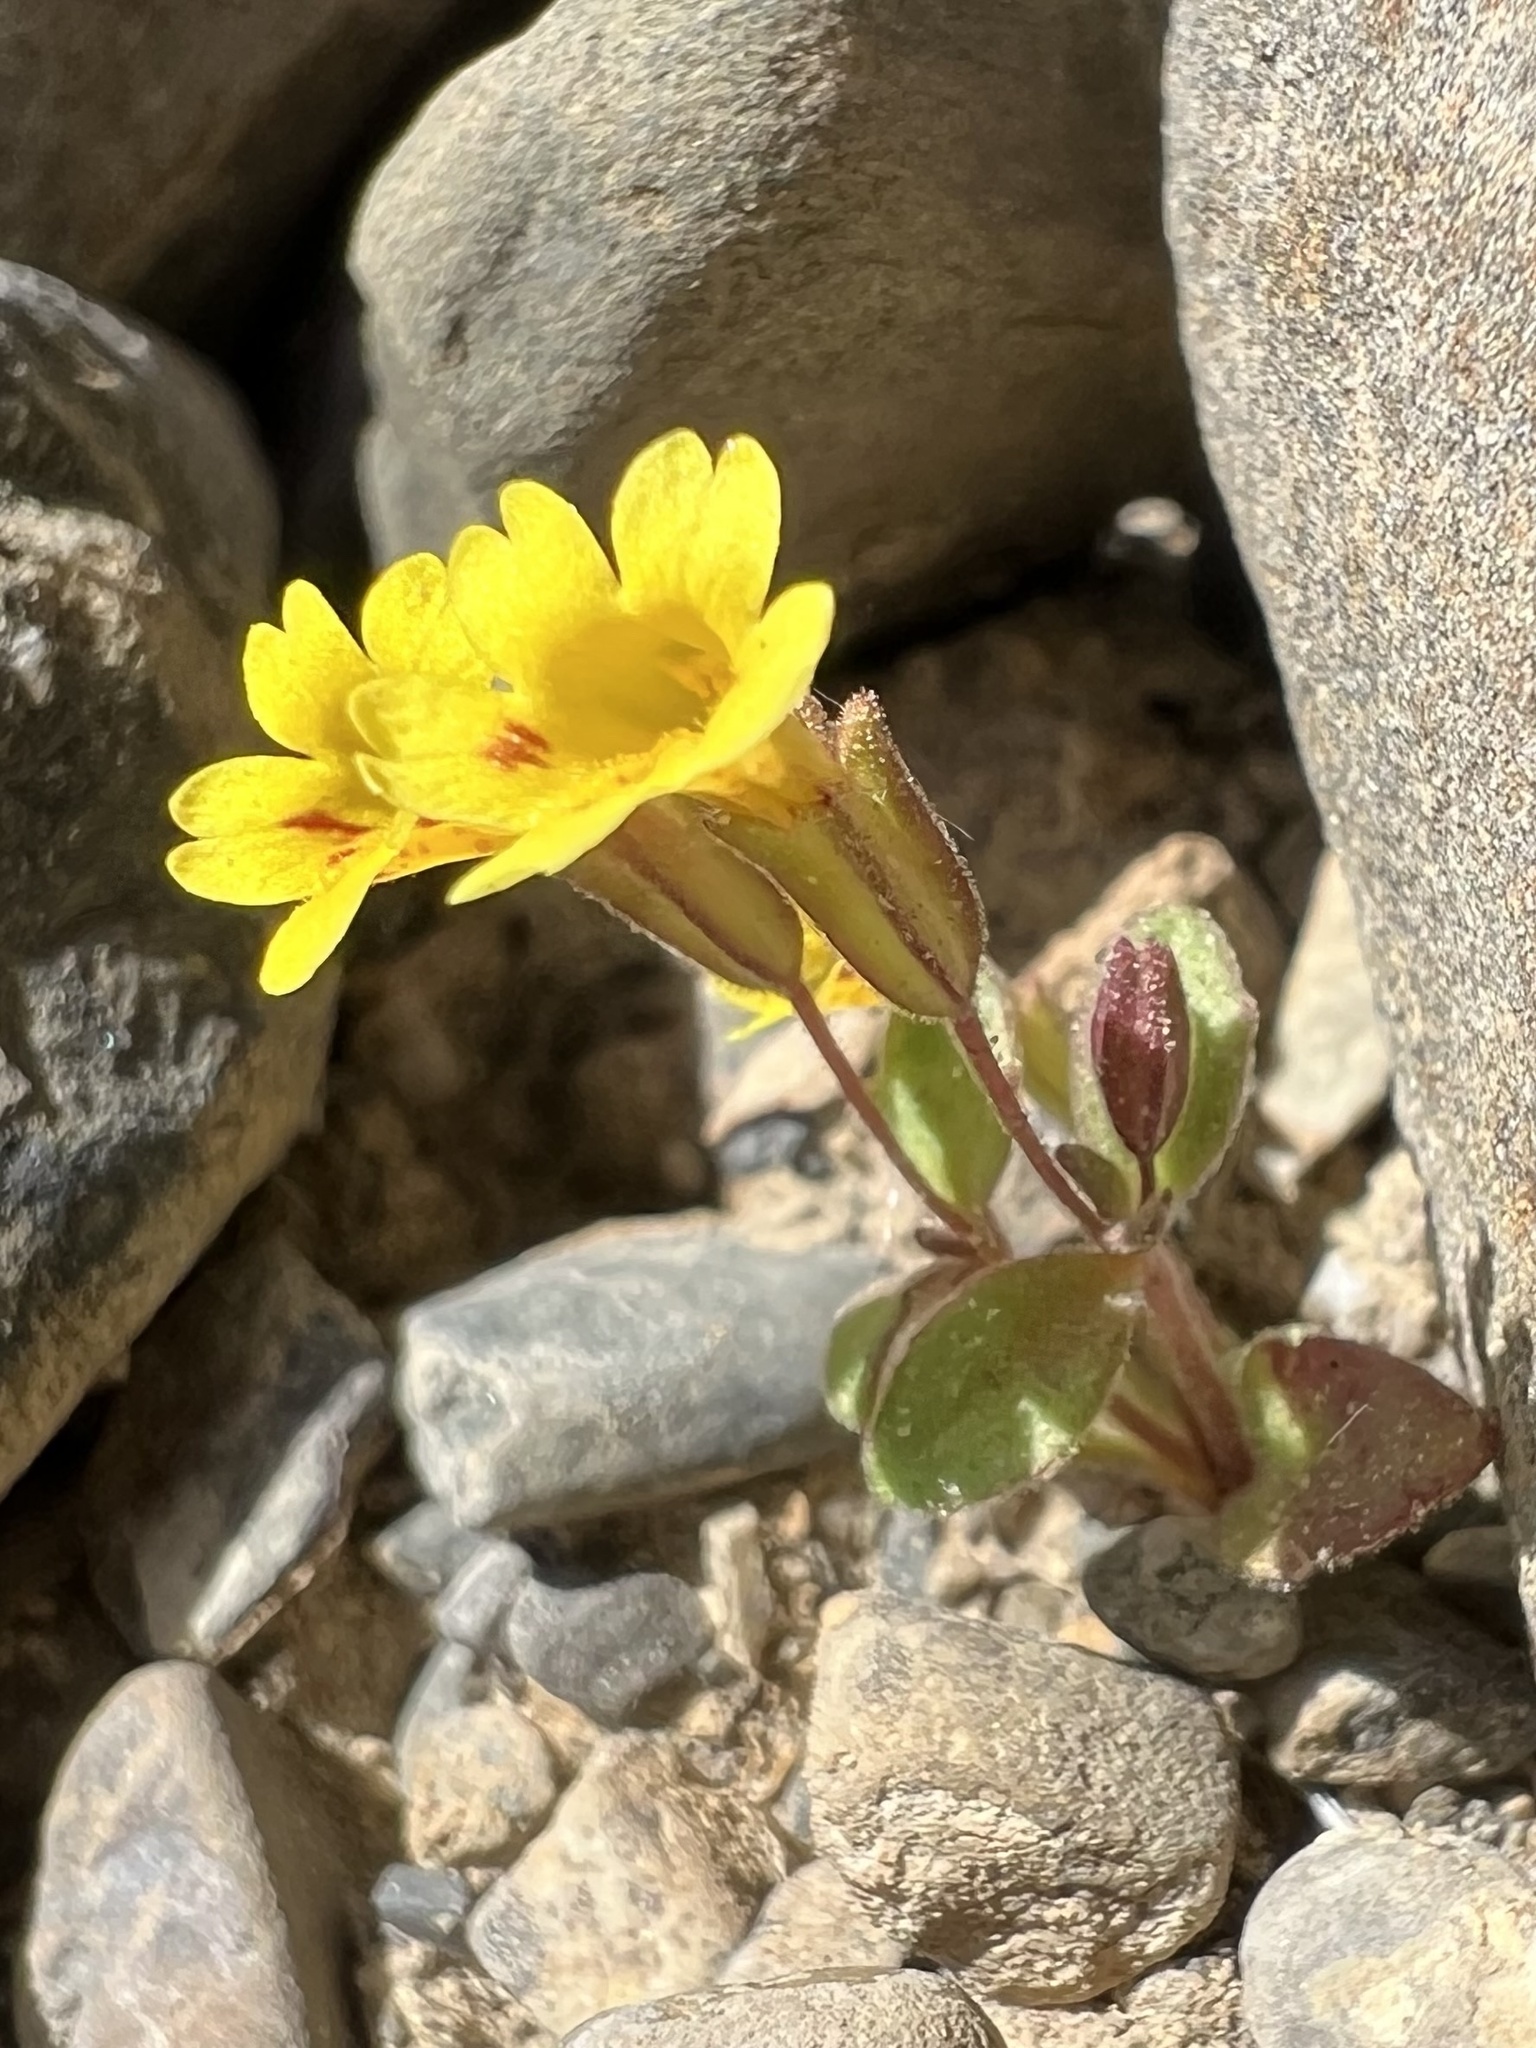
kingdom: Plantae
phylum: Tracheophyta
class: Magnoliopsida
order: Lamiales
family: Phrymaceae
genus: Erythranthe
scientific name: Erythranthe calcicola
